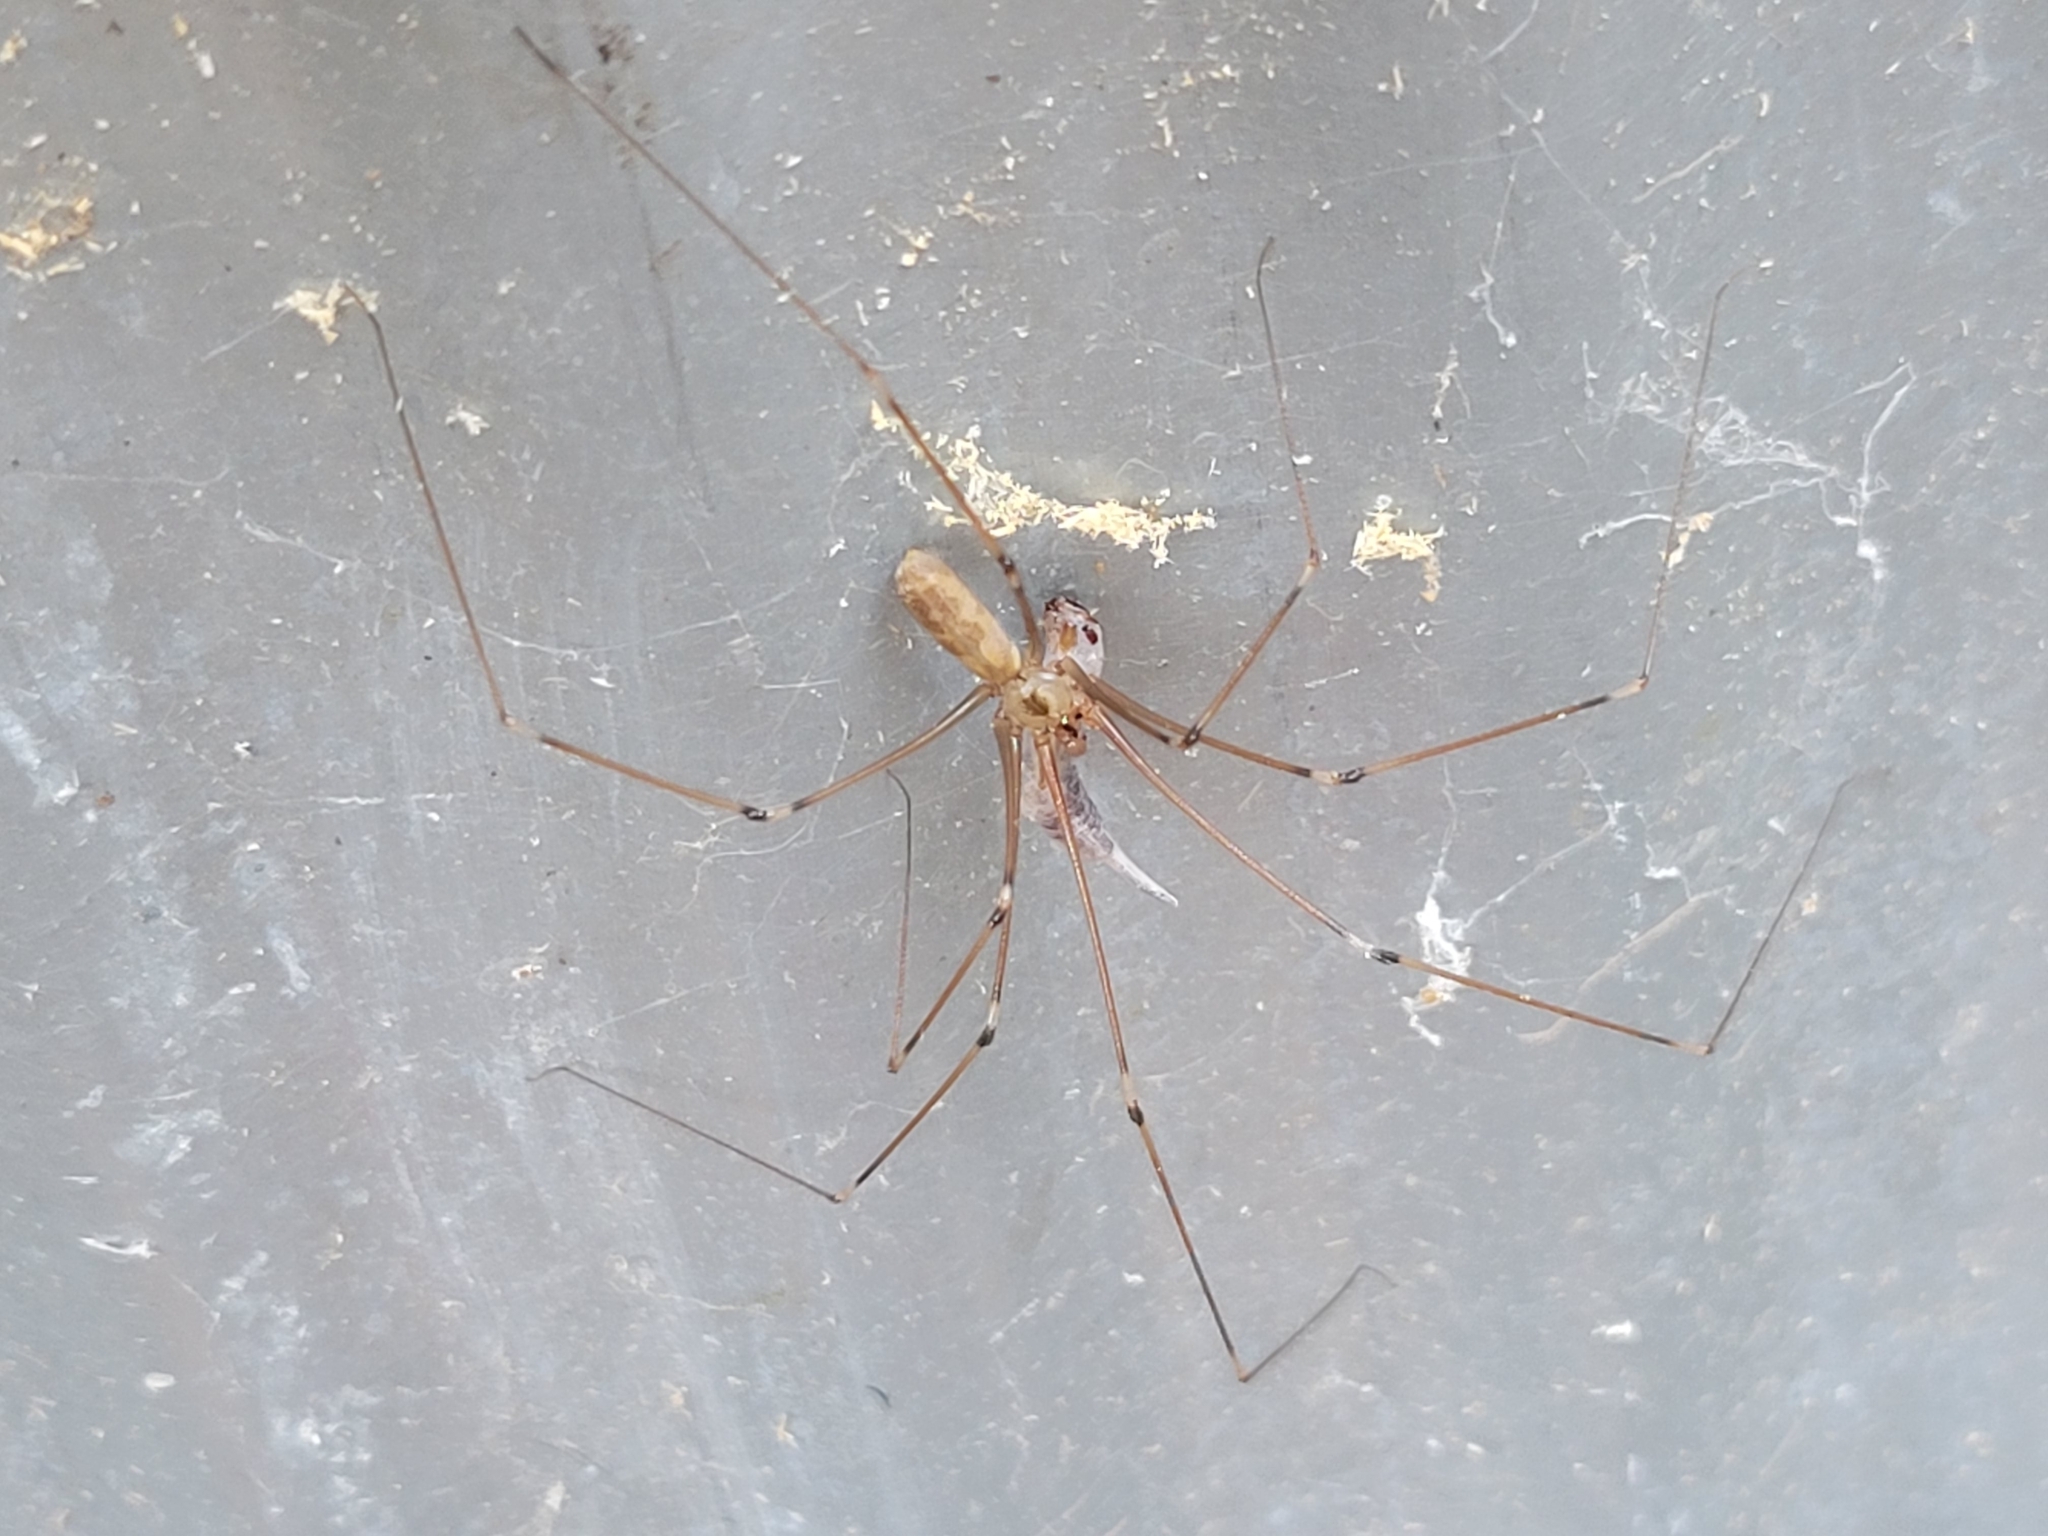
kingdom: Animalia
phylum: Arthropoda
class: Arachnida
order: Araneae
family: Pholcidae
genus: Pholcus
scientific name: Pholcus phalangioides
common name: Longbodied cellar spider
